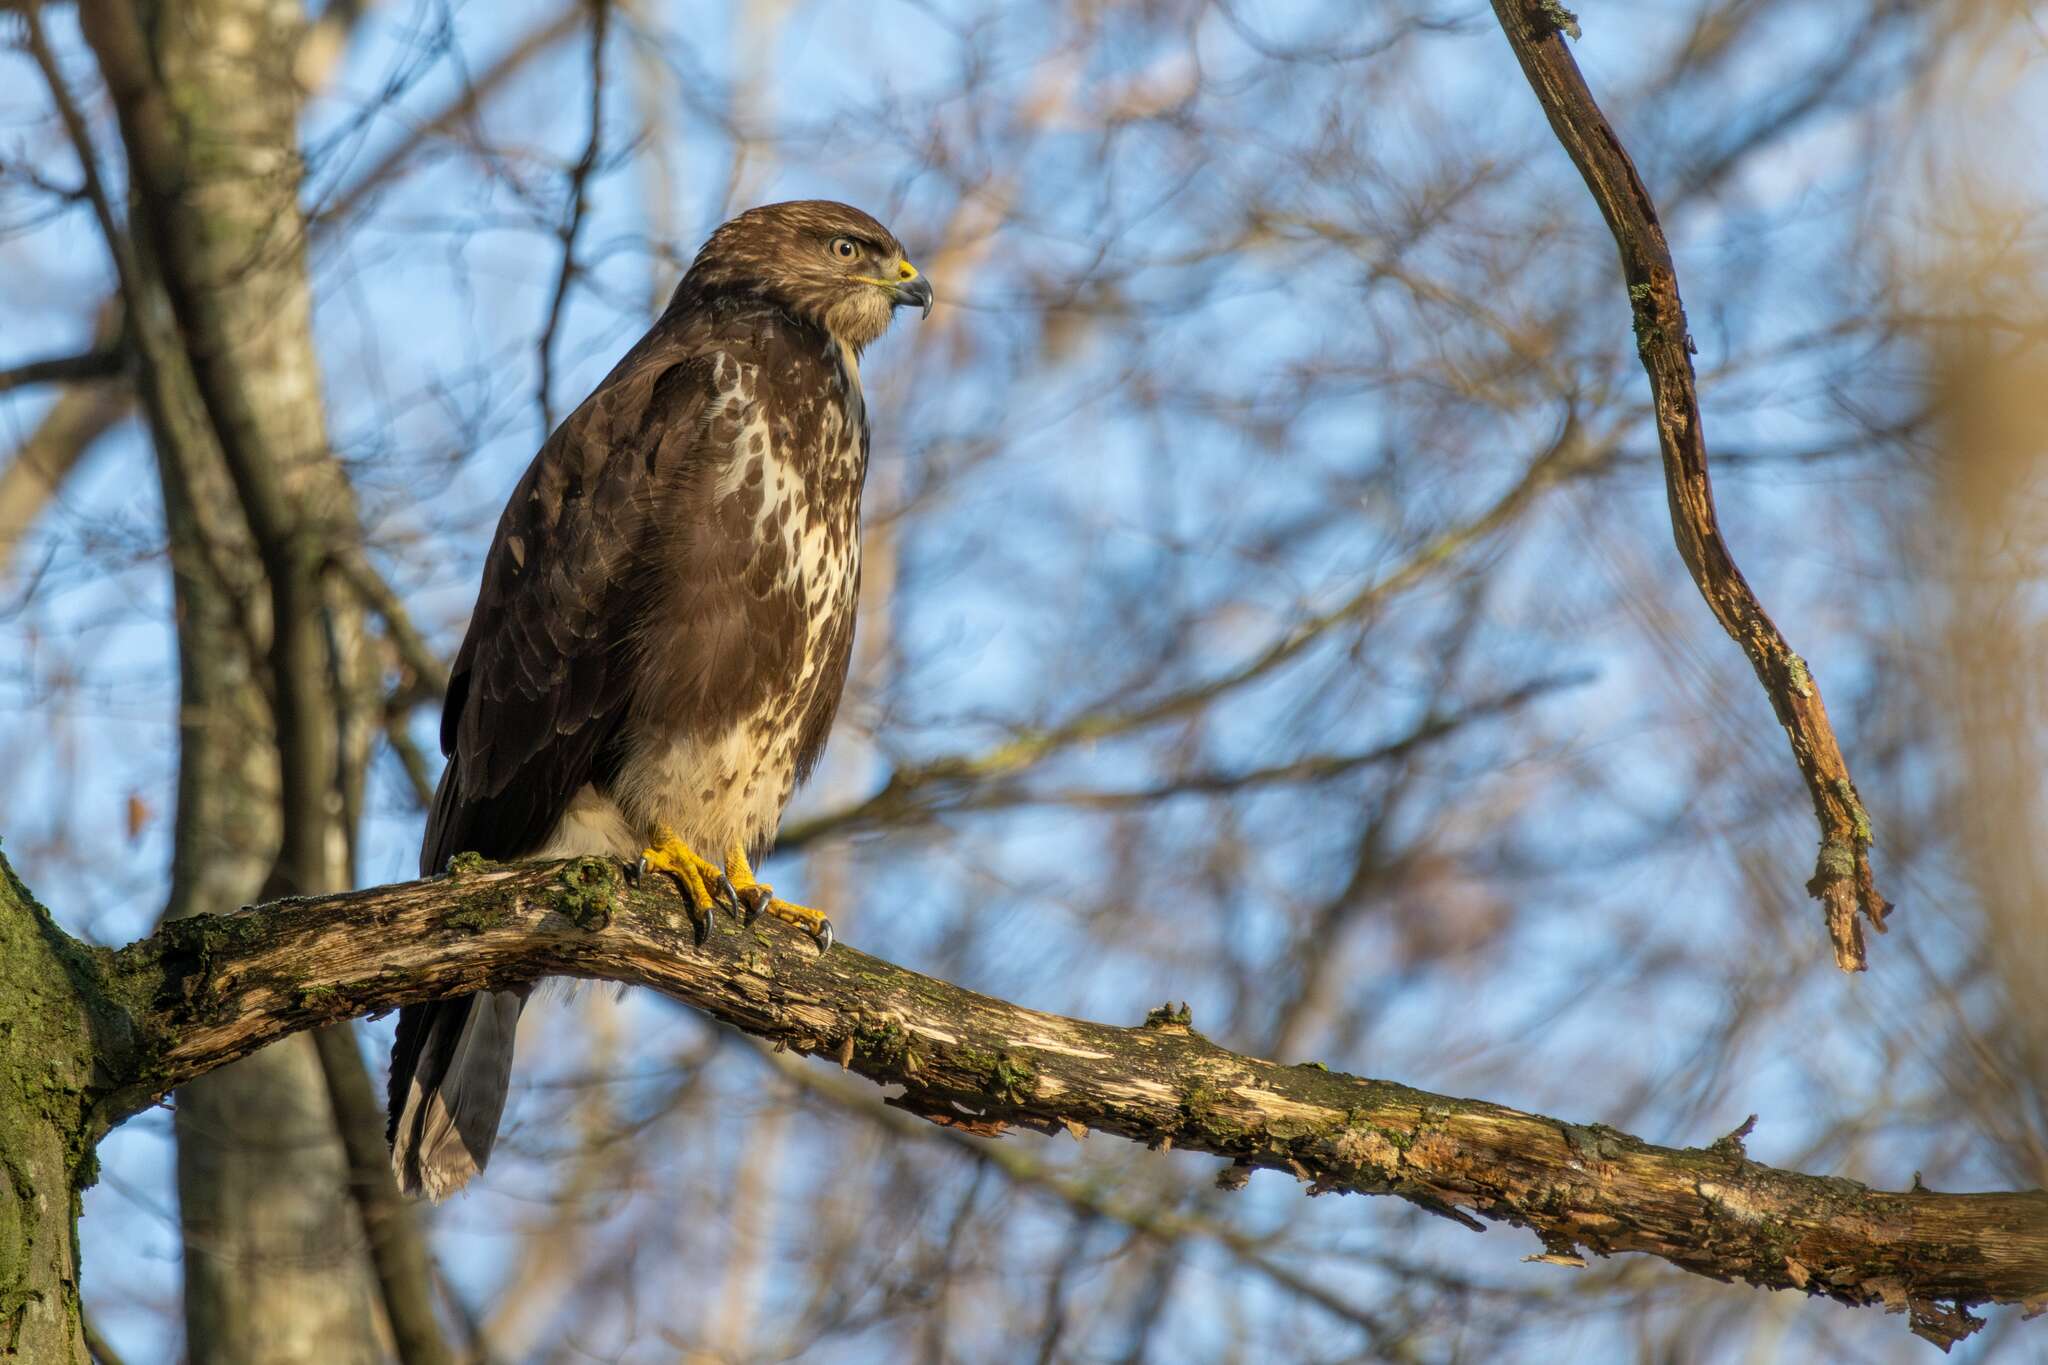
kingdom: Animalia
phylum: Chordata
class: Aves
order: Accipitriformes
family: Accipitridae
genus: Buteo
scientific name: Buteo buteo
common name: Common buzzard
